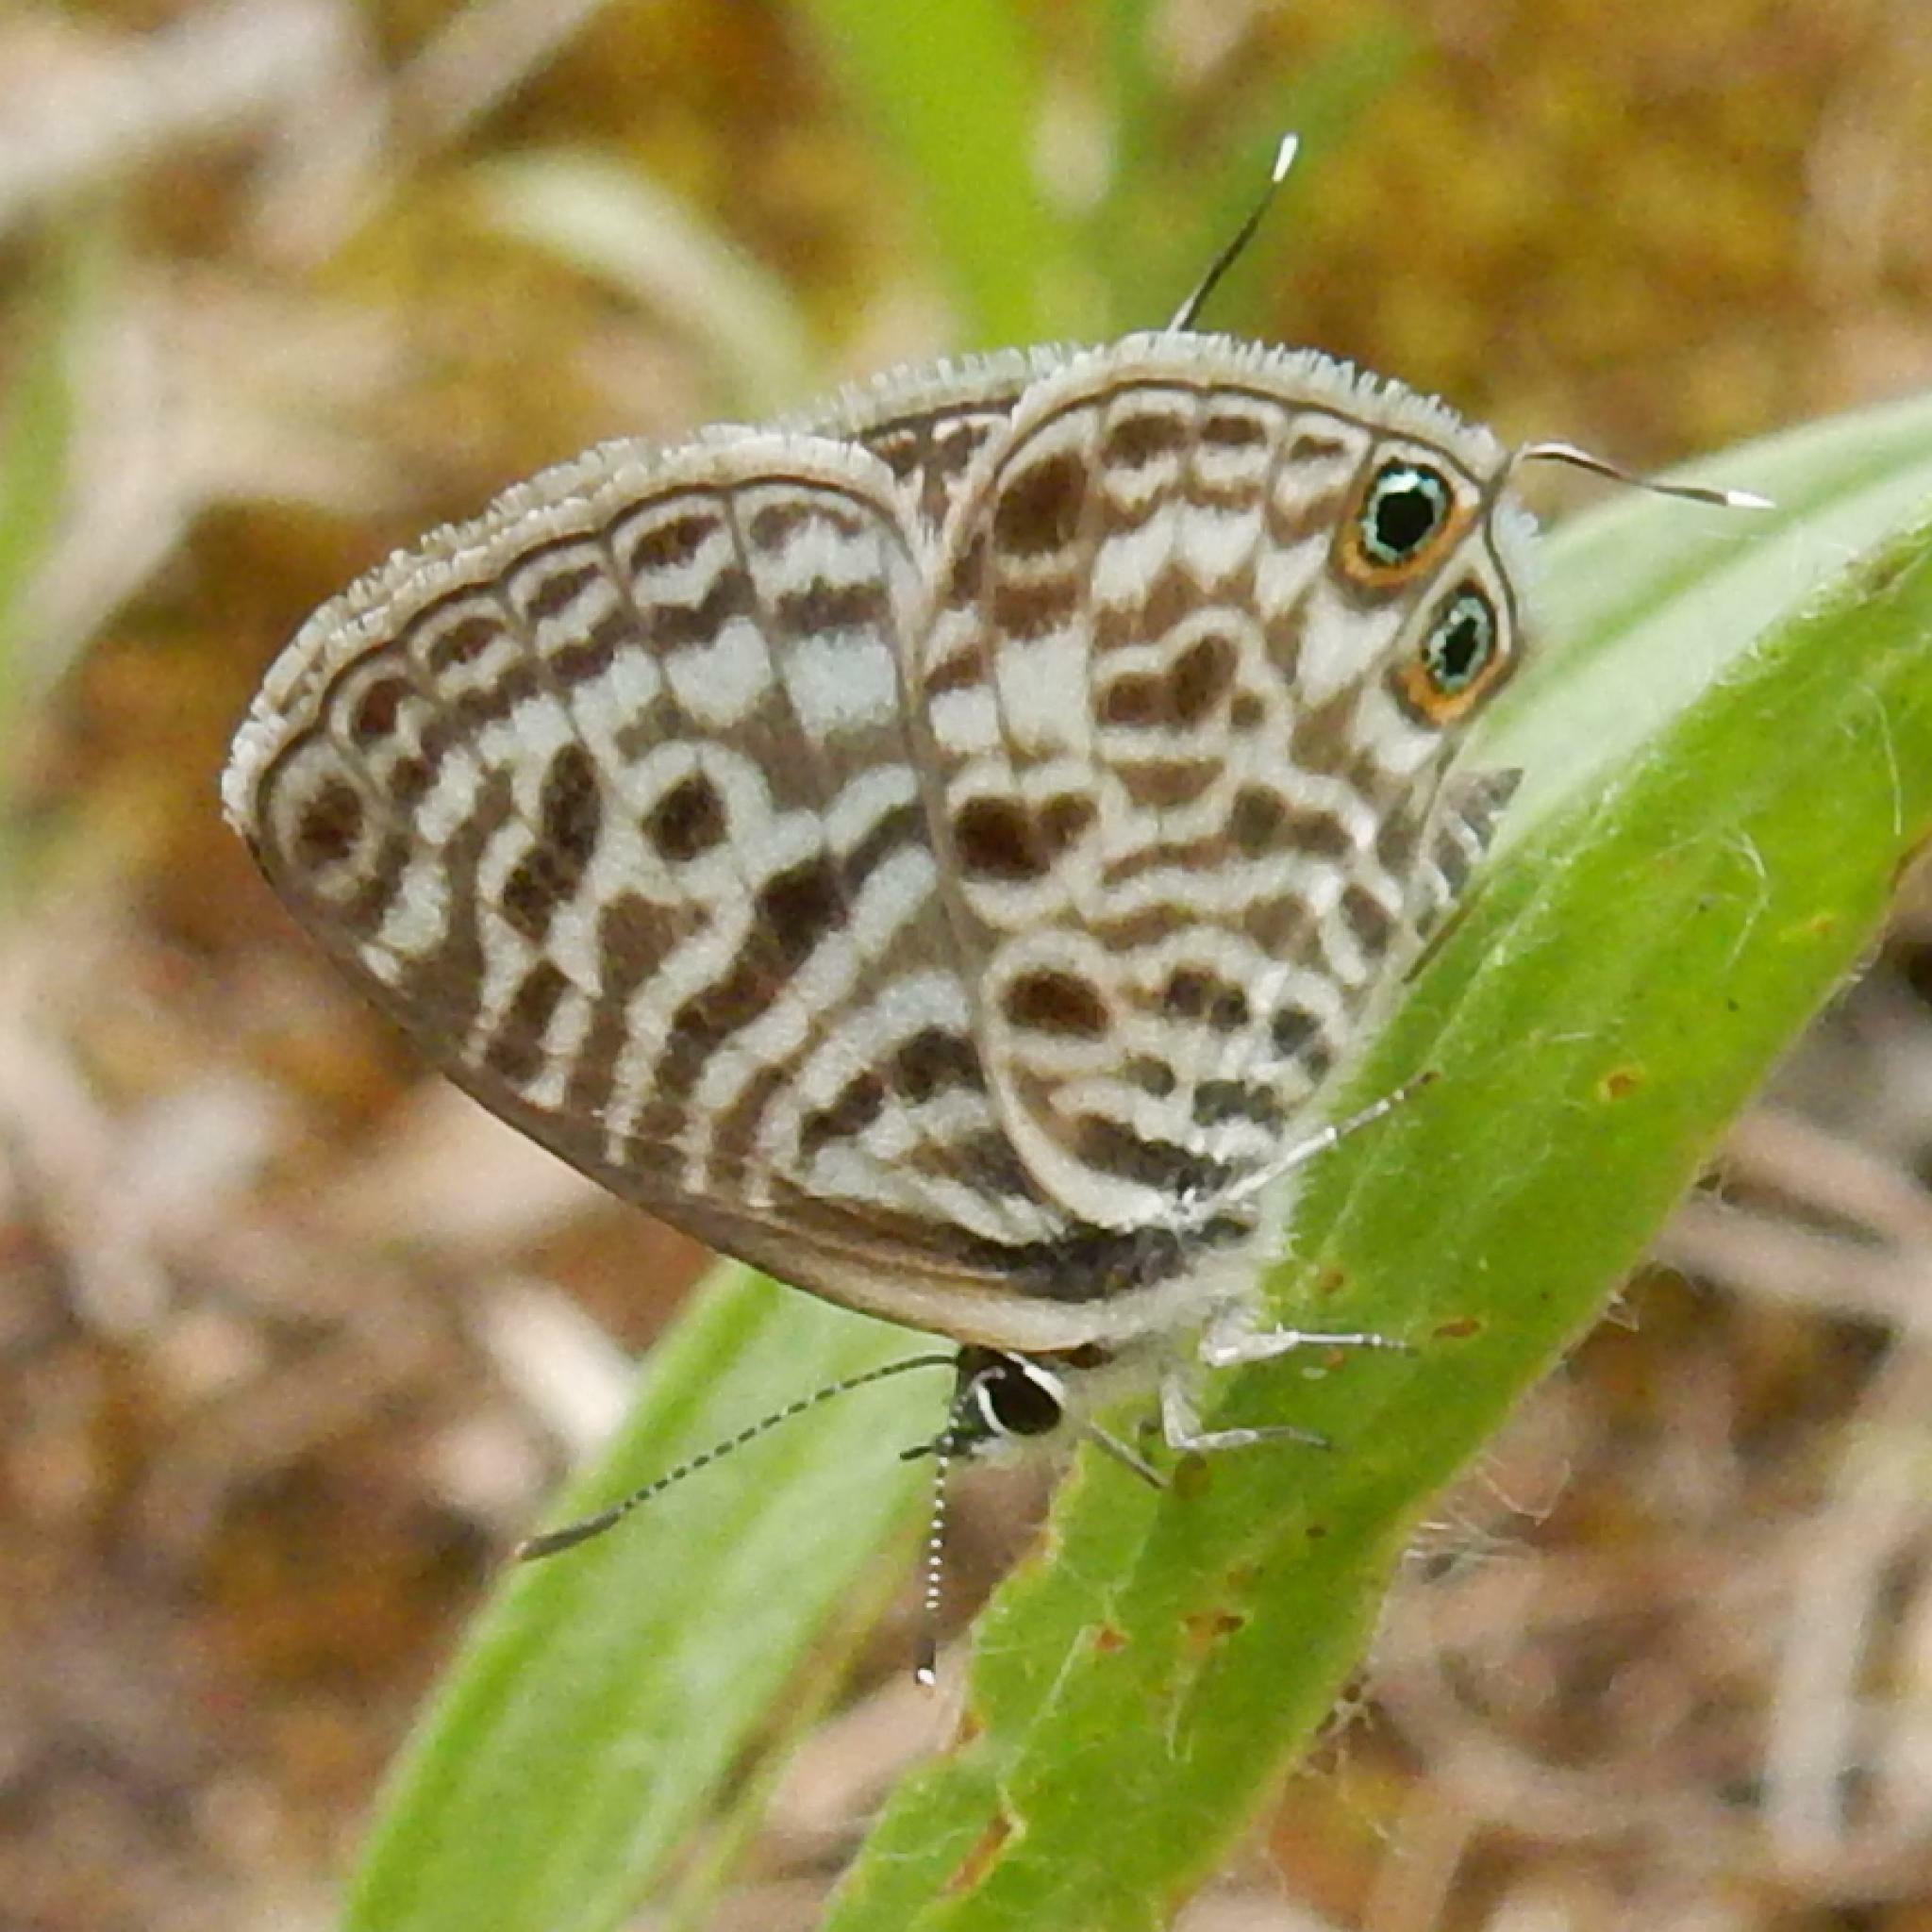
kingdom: Animalia
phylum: Arthropoda
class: Insecta
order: Lepidoptera
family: Lycaenidae
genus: Leptotes
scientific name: Leptotes
